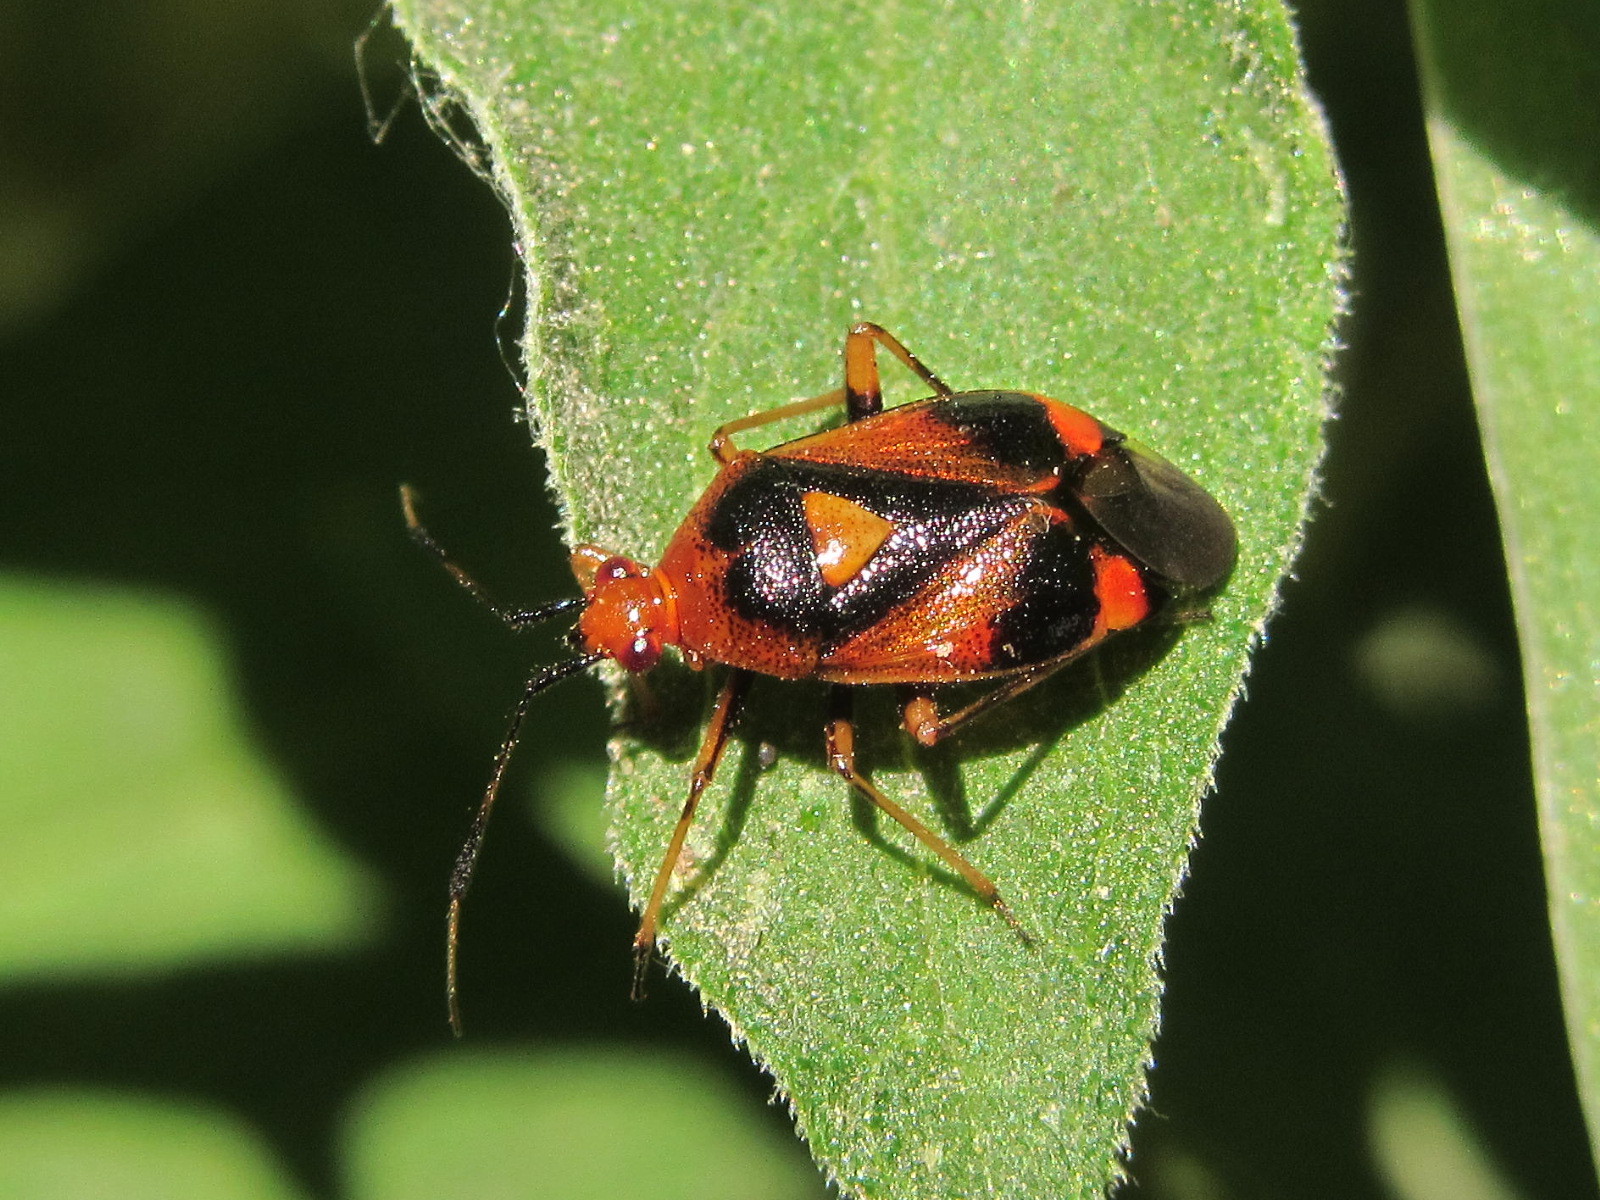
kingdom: Animalia
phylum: Arthropoda
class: Insecta
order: Hemiptera
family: Miridae
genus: Deraeocoris
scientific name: Deraeocoris ruber
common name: Plant bug
